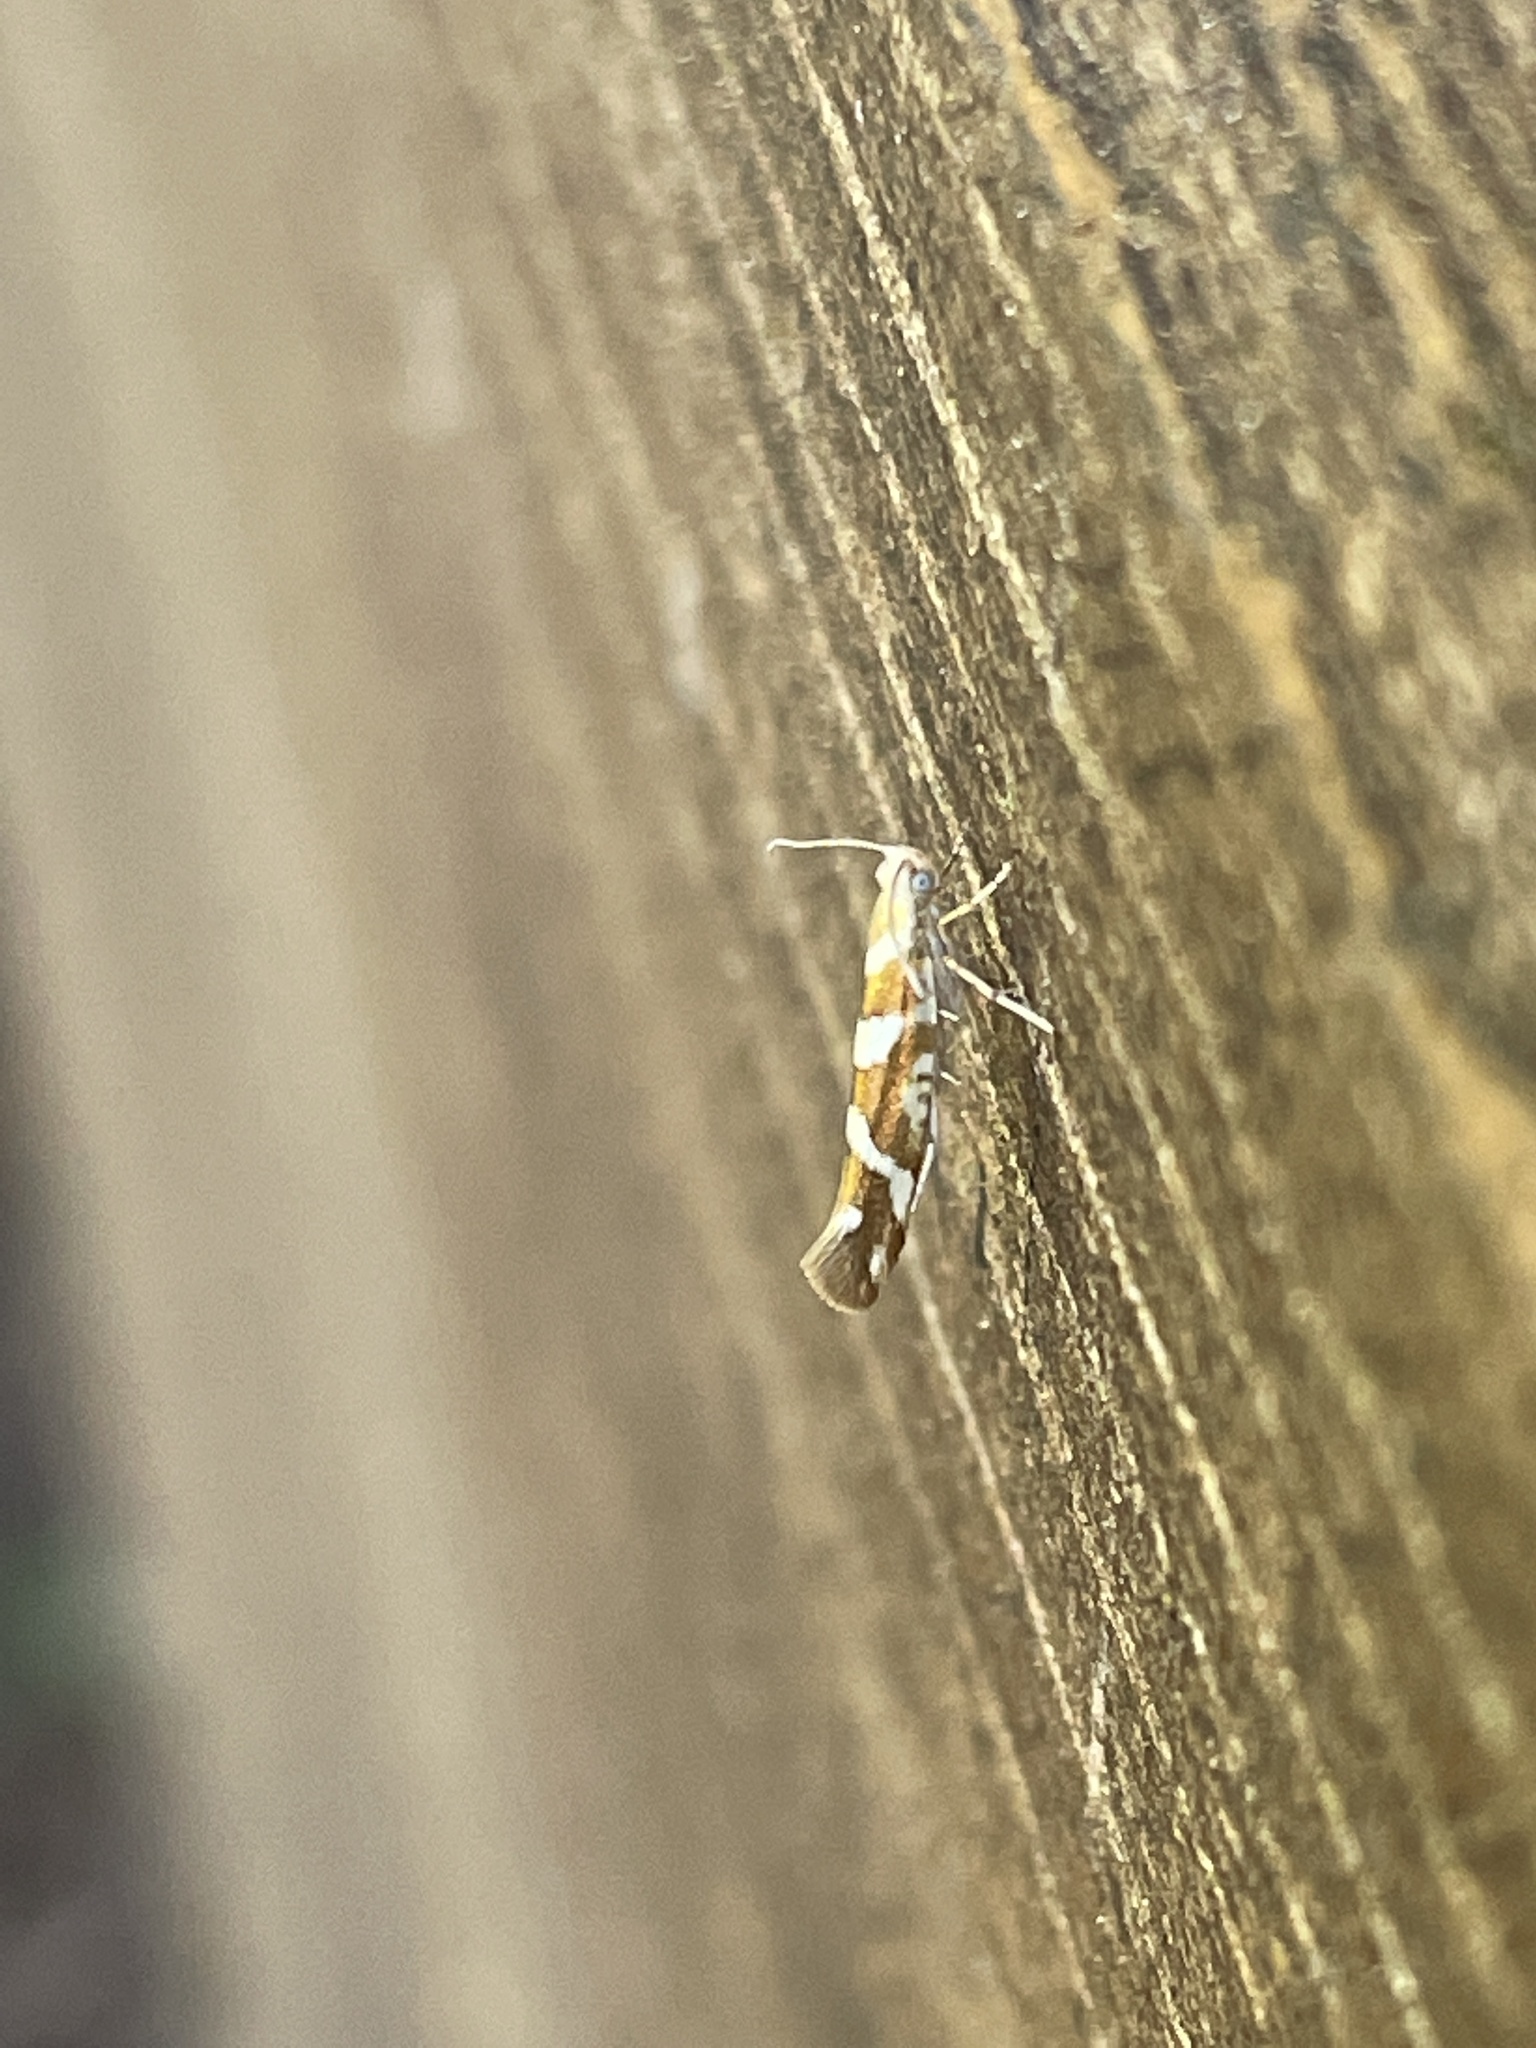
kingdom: Animalia
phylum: Arthropoda
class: Insecta
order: Lepidoptera
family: Argyresthiidae
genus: Argyresthia
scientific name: Argyresthia goedartella
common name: Golden argent
